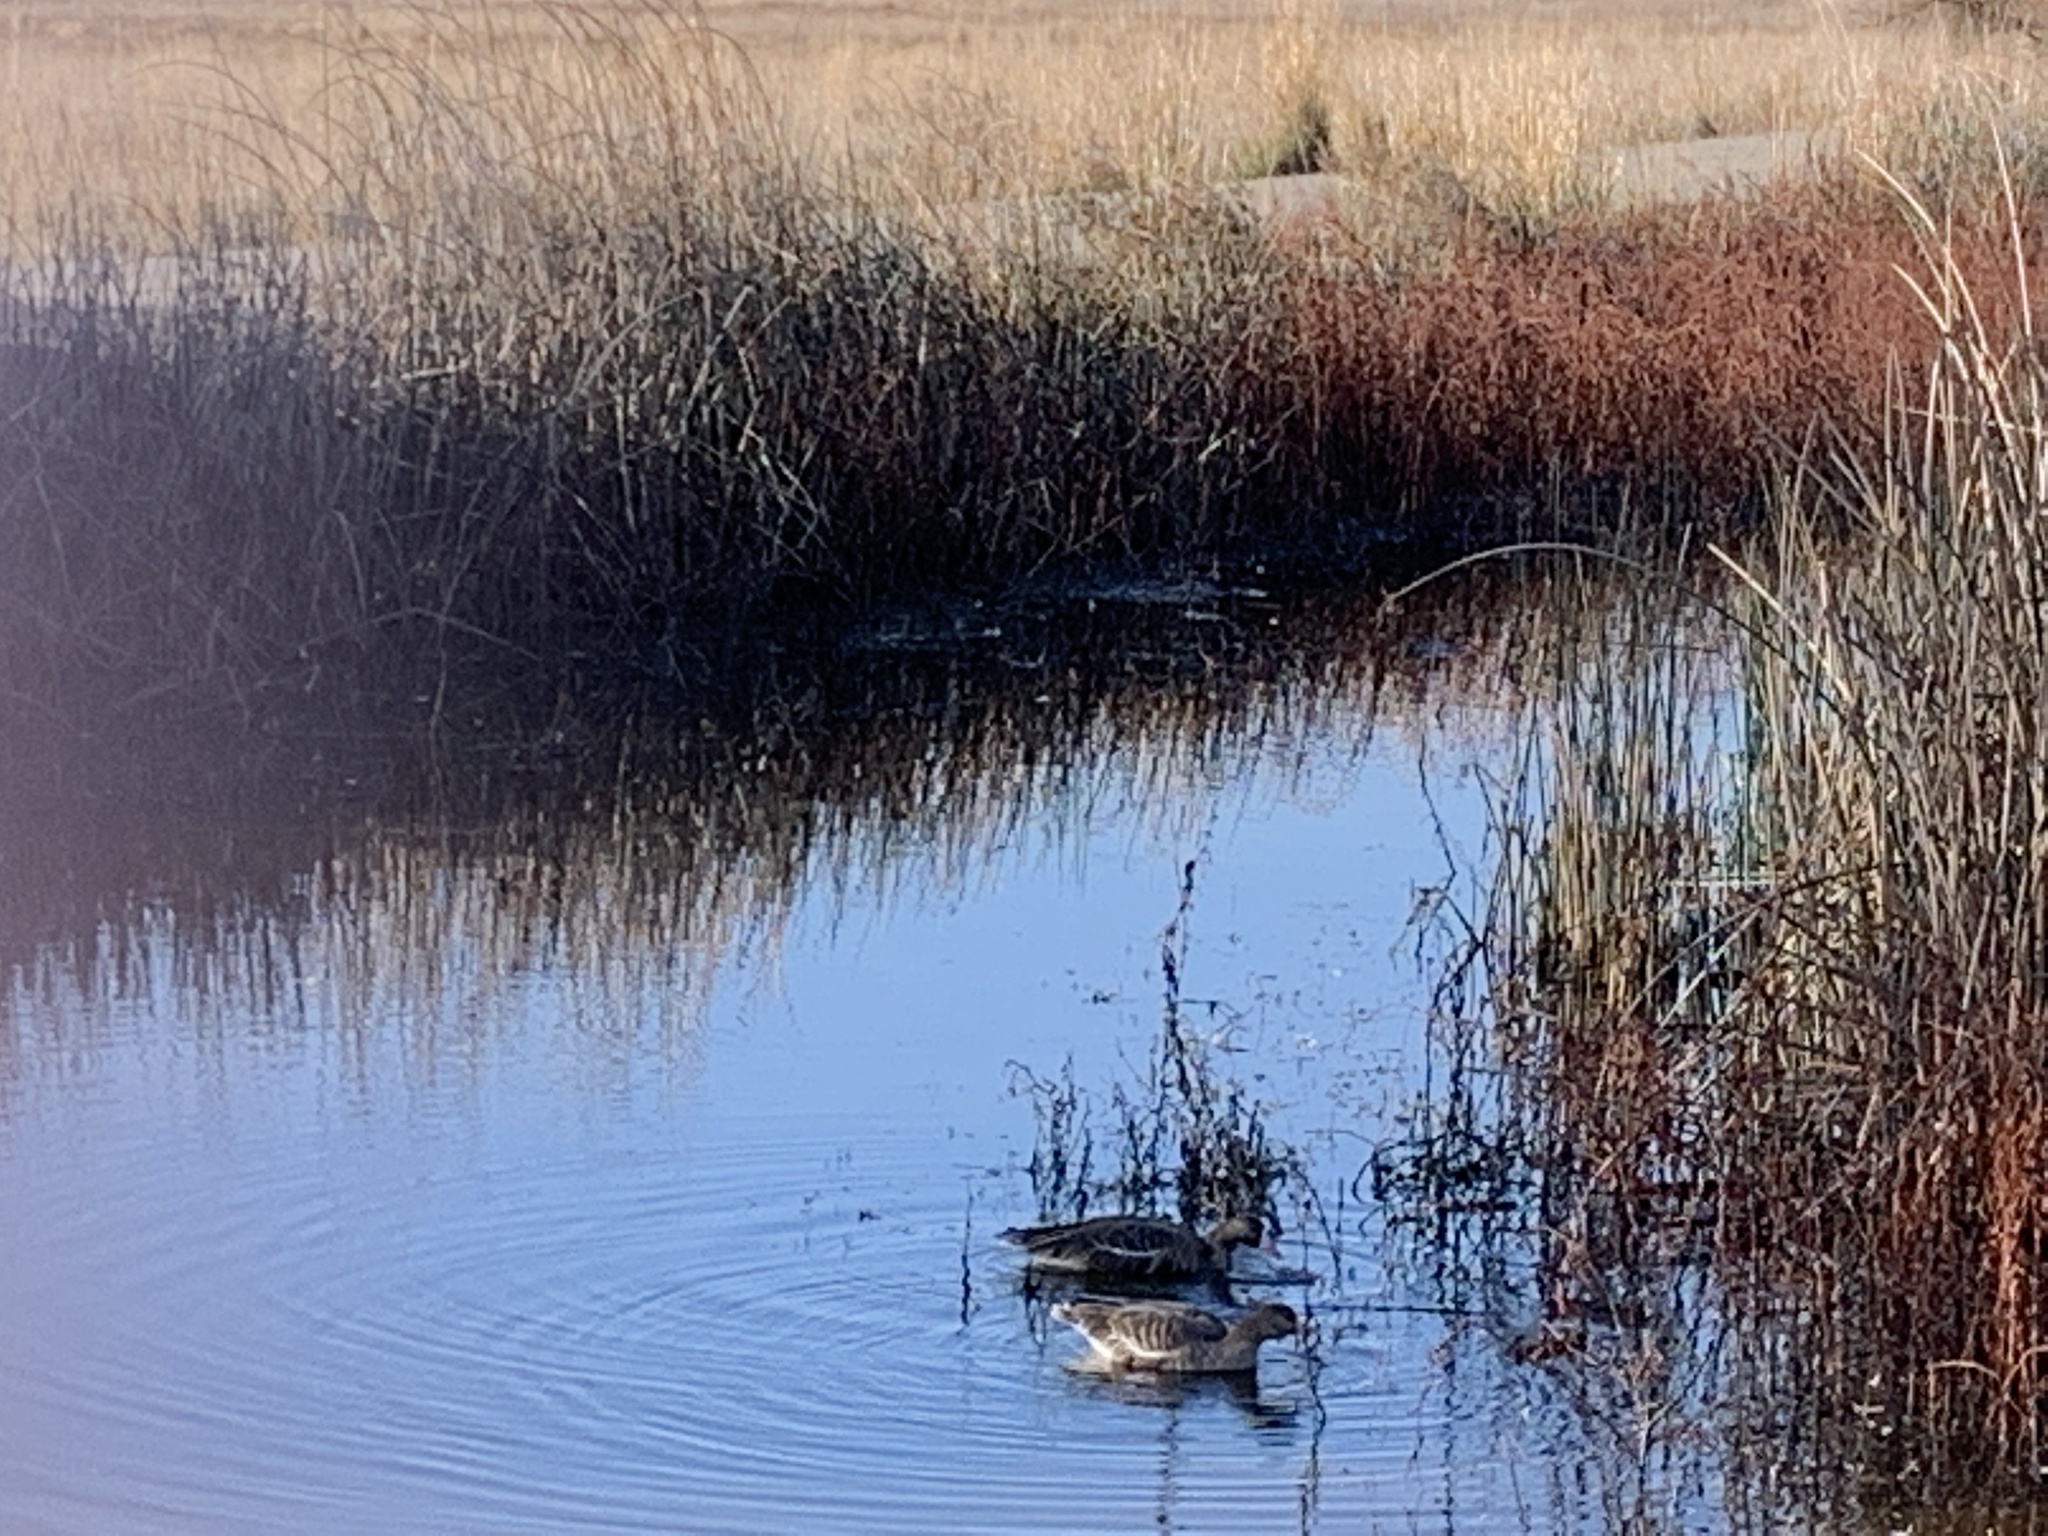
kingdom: Animalia
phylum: Chordata
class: Aves
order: Anseriformes
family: Anatidae
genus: Anser
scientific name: Anser albifrons
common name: Greater white-fronted goose
